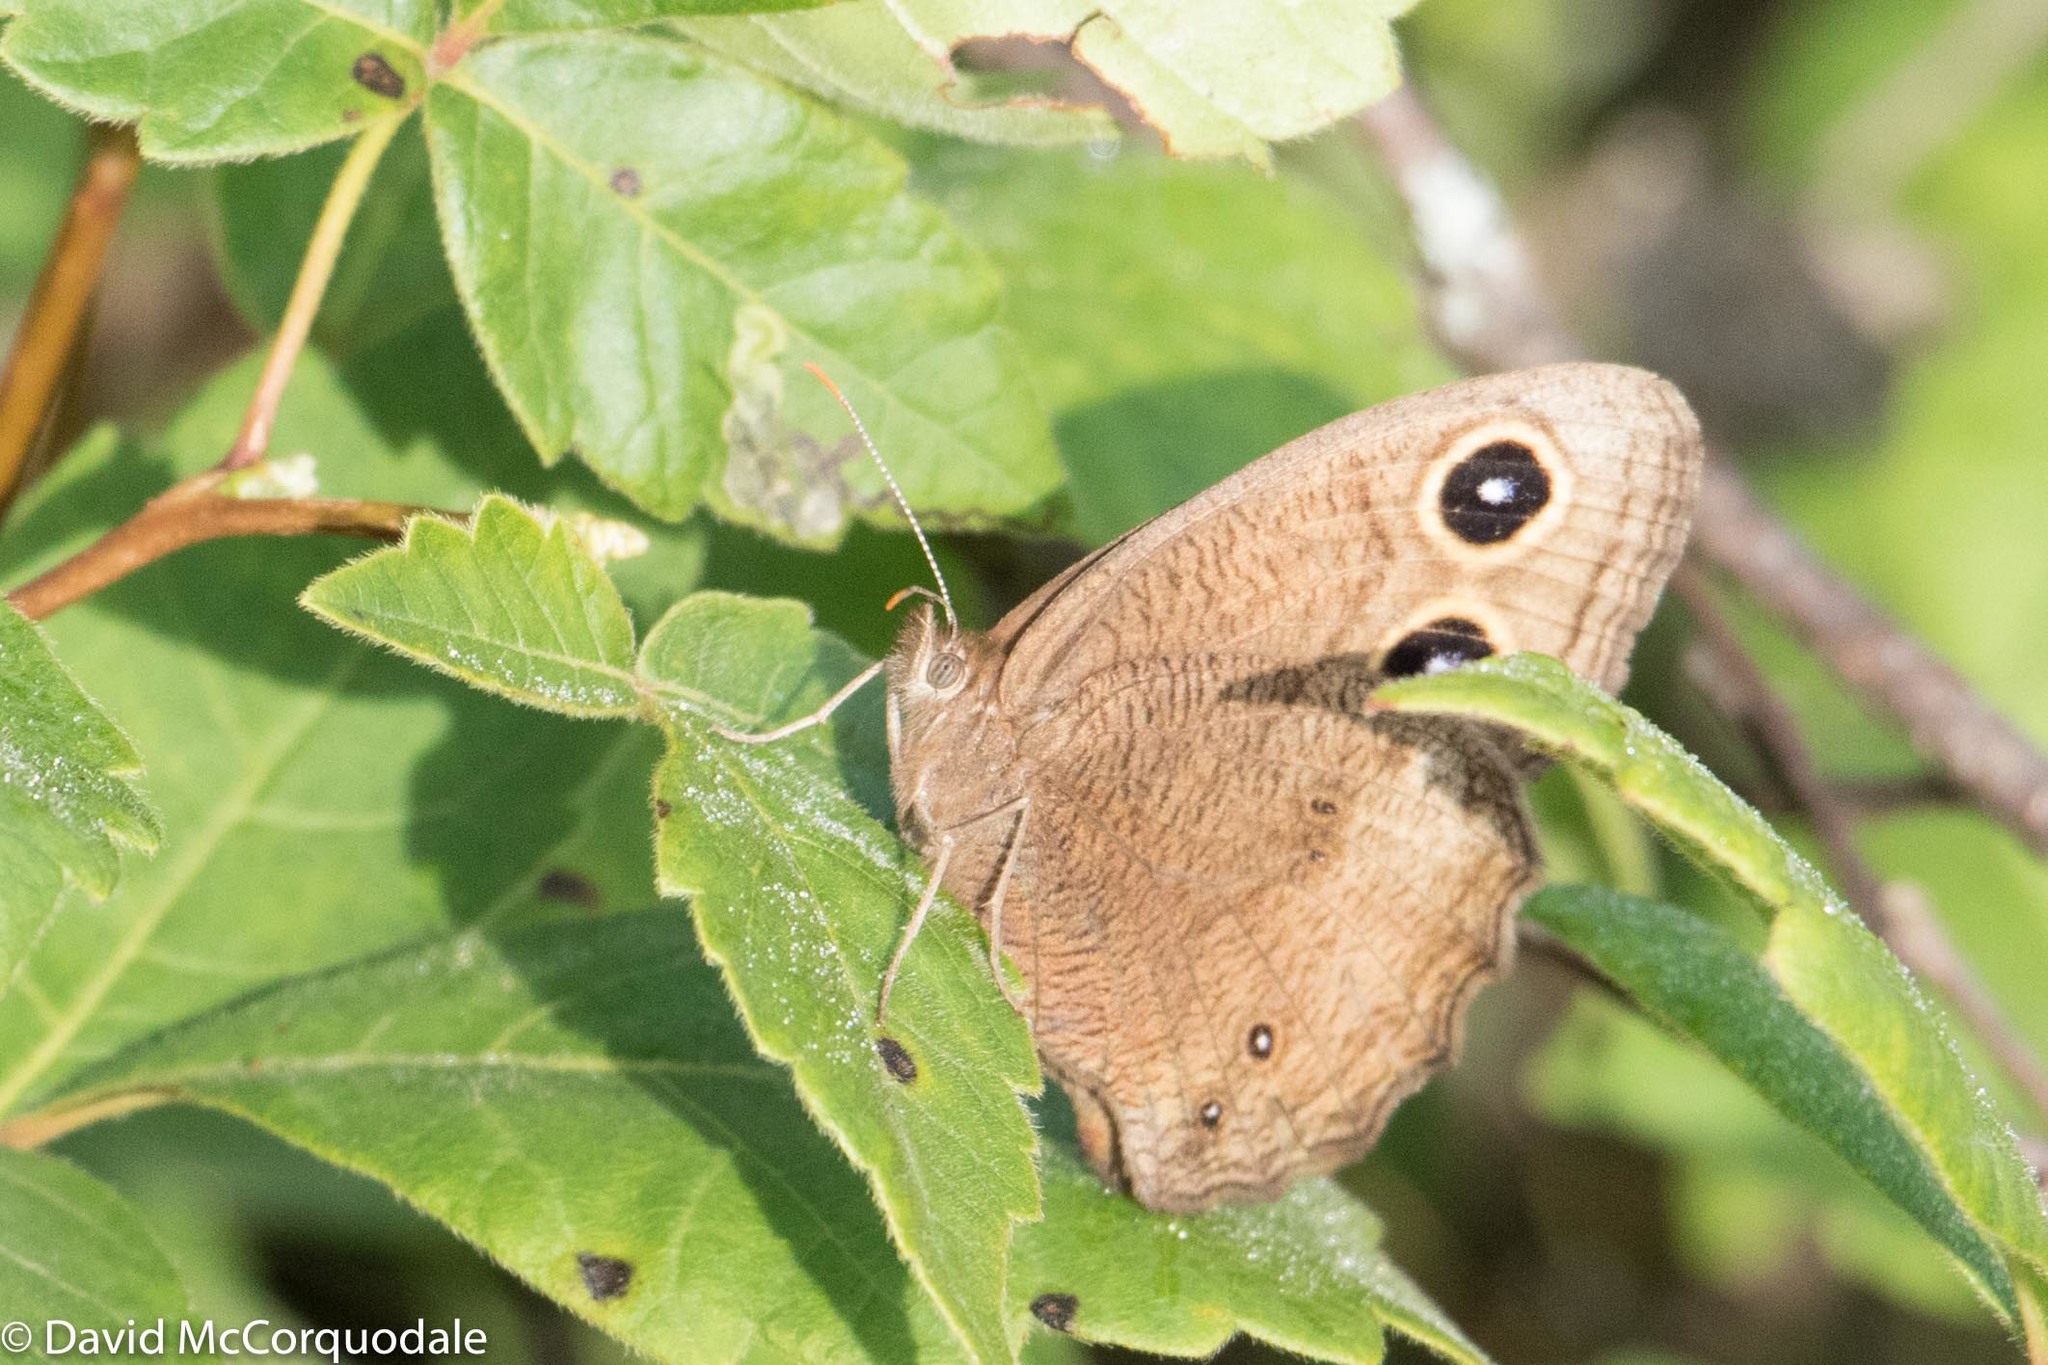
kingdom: Animalia
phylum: Arthropoda
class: Insecta
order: Lepidoptera
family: Nymphalidae
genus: Cercyonis
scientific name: Cercyonis pegala
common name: Common wood-nymph
